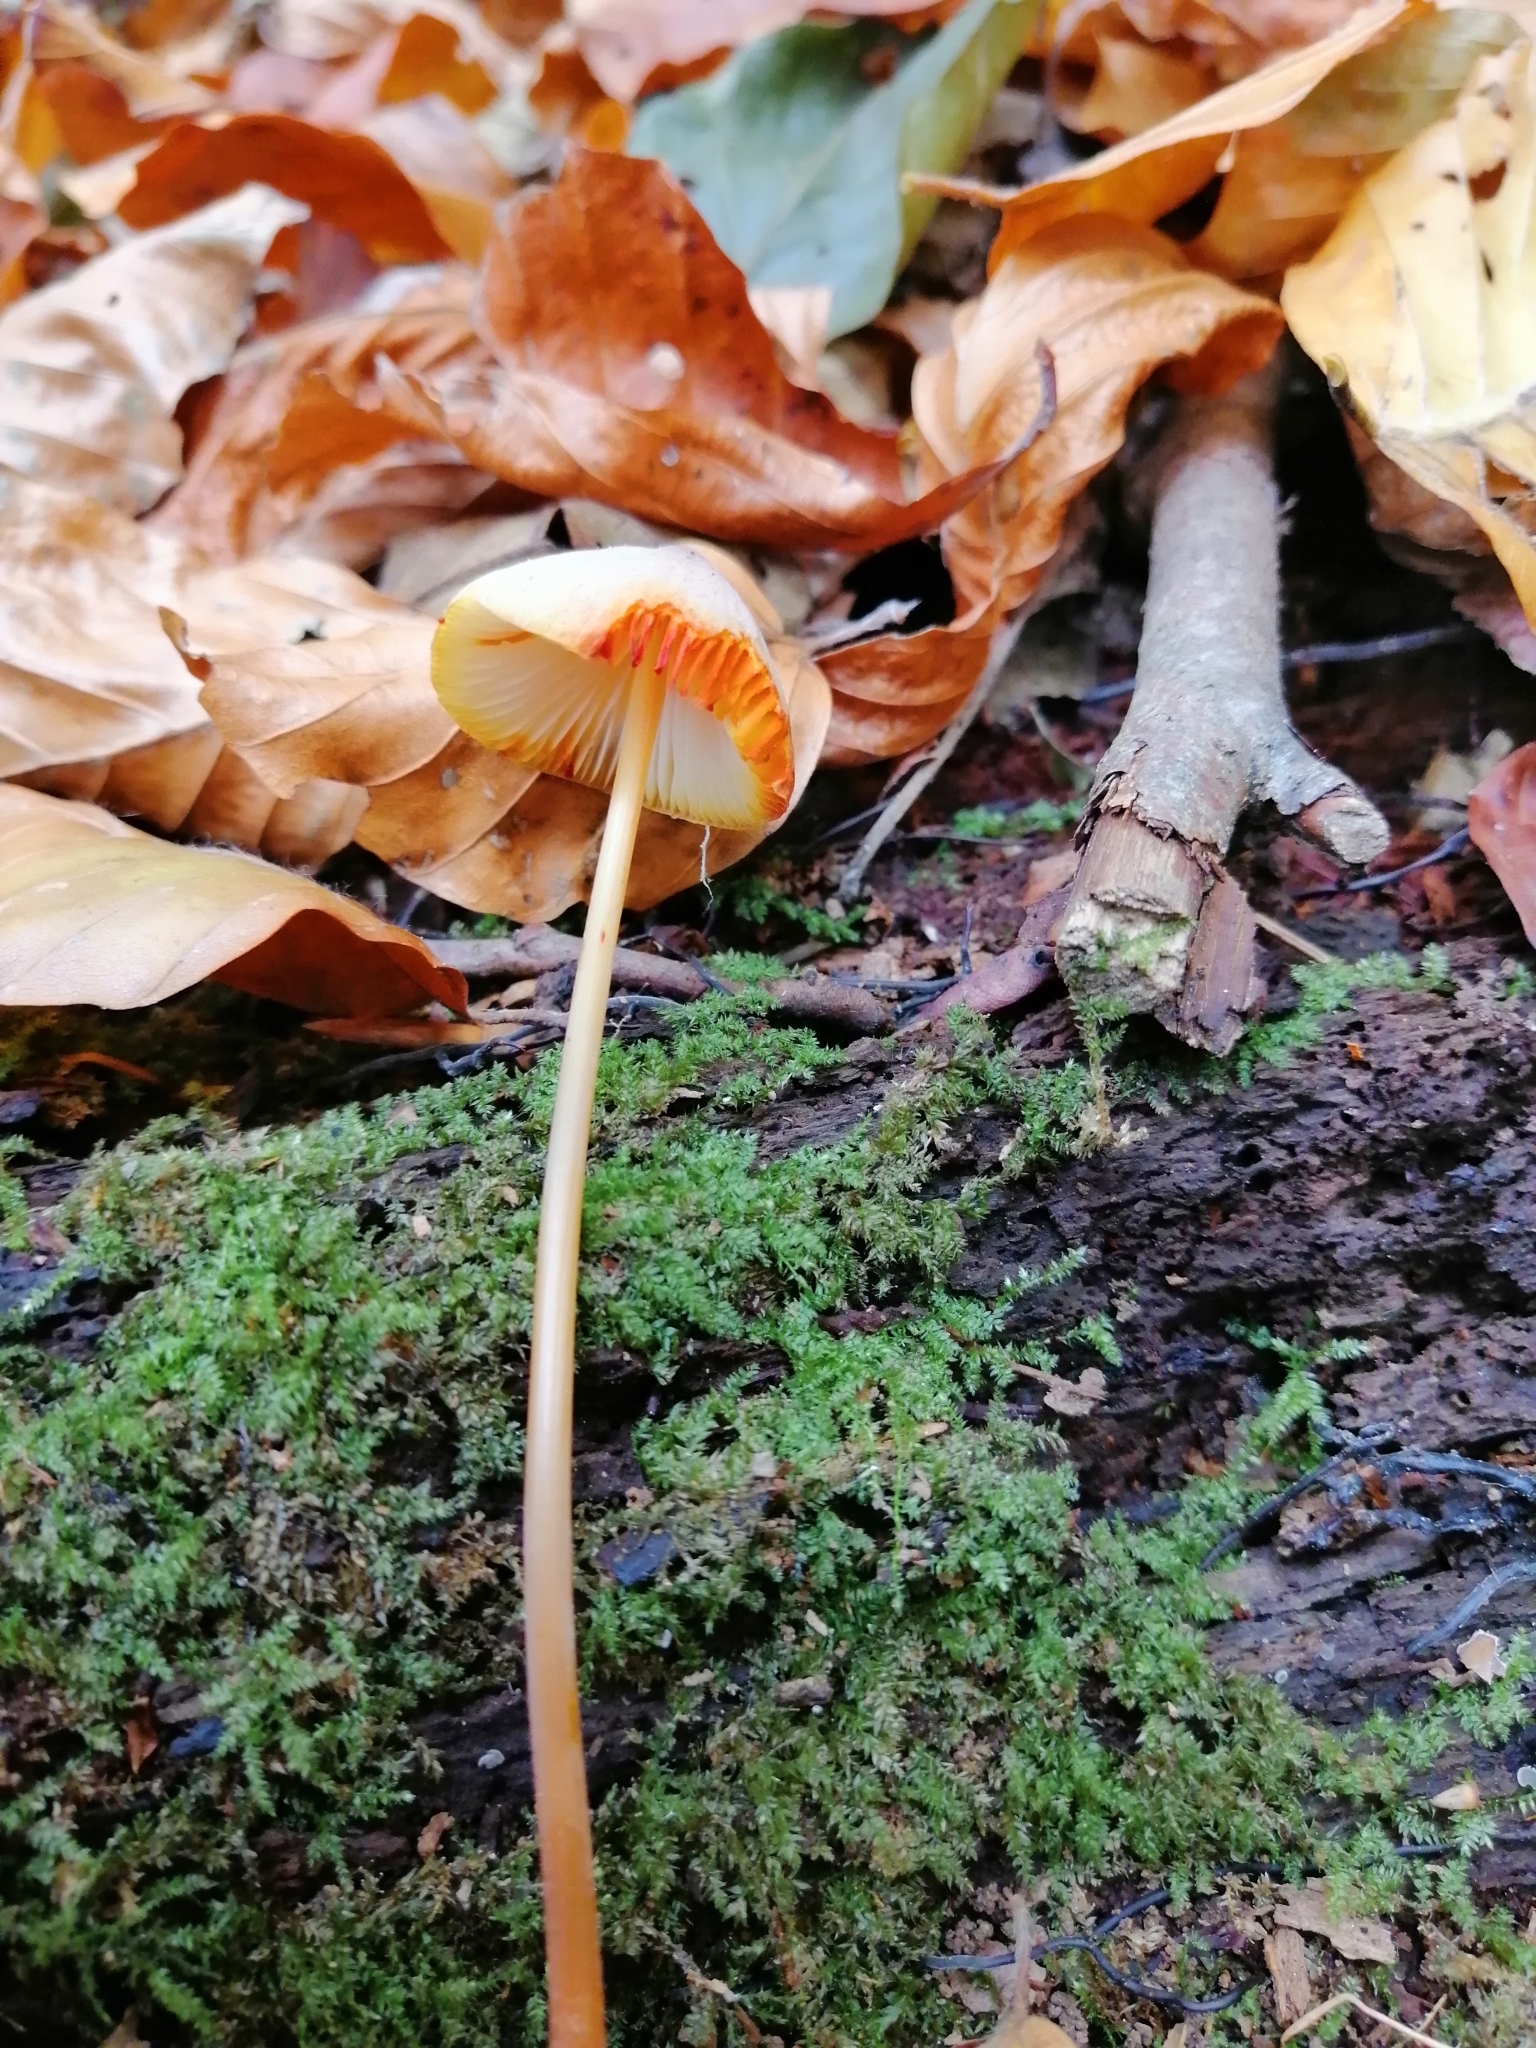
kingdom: Fungi
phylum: Basidiomycota
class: Agaricomycetes
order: Agaricales
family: Mycenaceae
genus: Mycena
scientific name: Mycena crocata
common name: Saffrondrop bonnet
